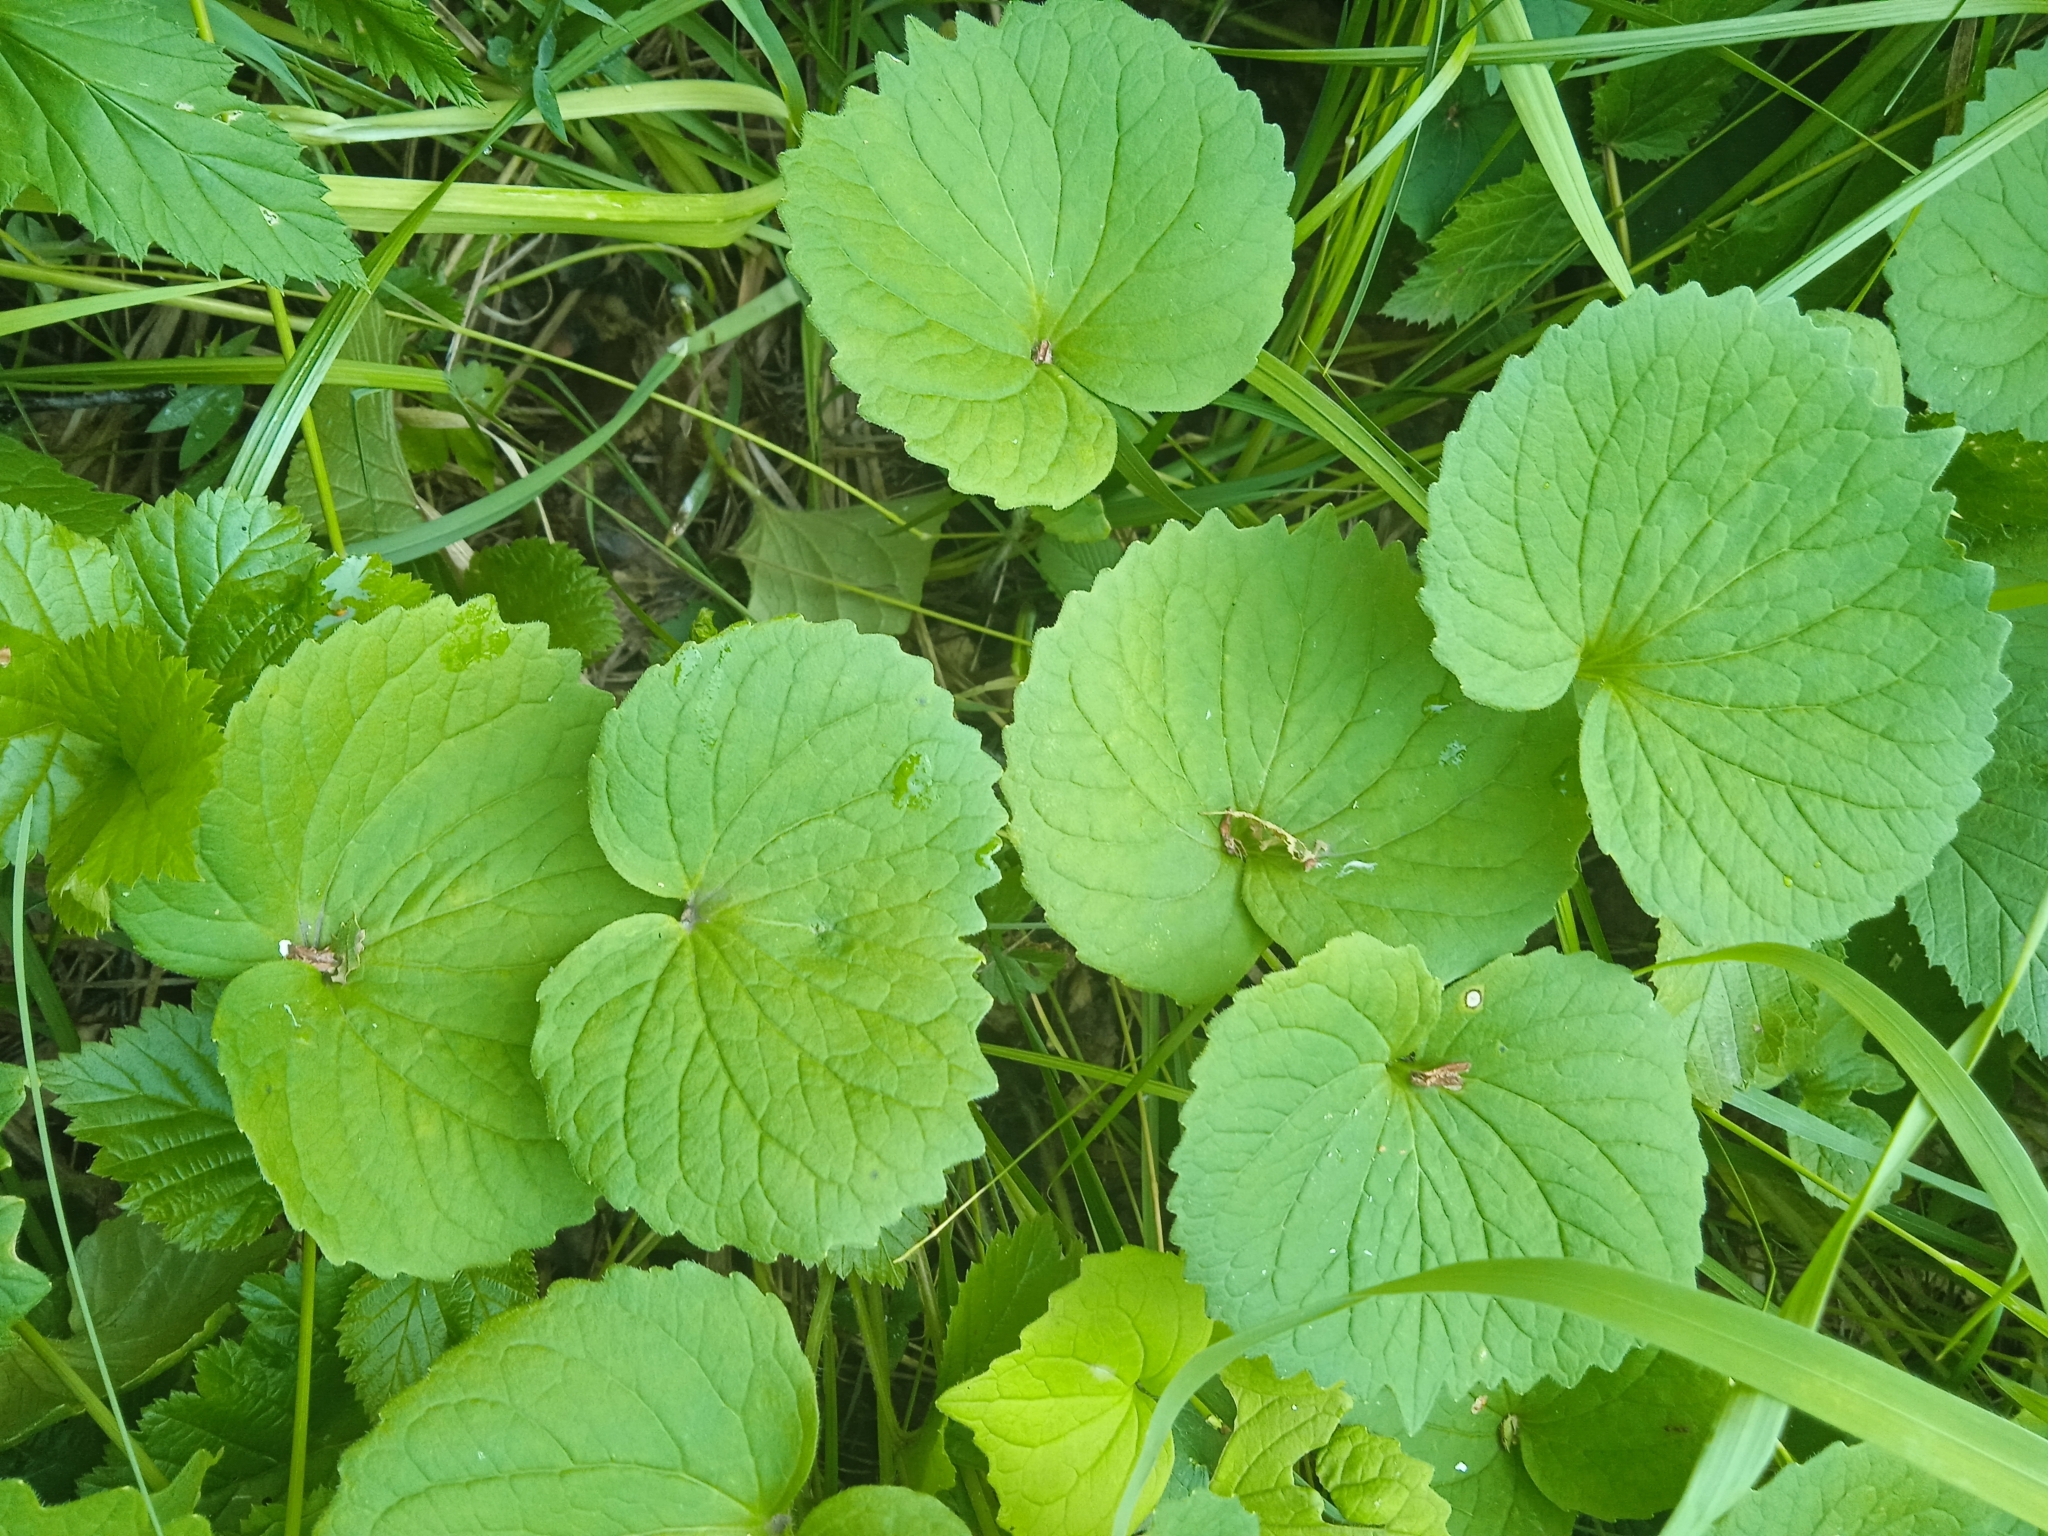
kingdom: Plantae
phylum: Tracheophyta
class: Magnoliopsida
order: Malpighiales
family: Violaceae
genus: Viola
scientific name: Viola uniflora
